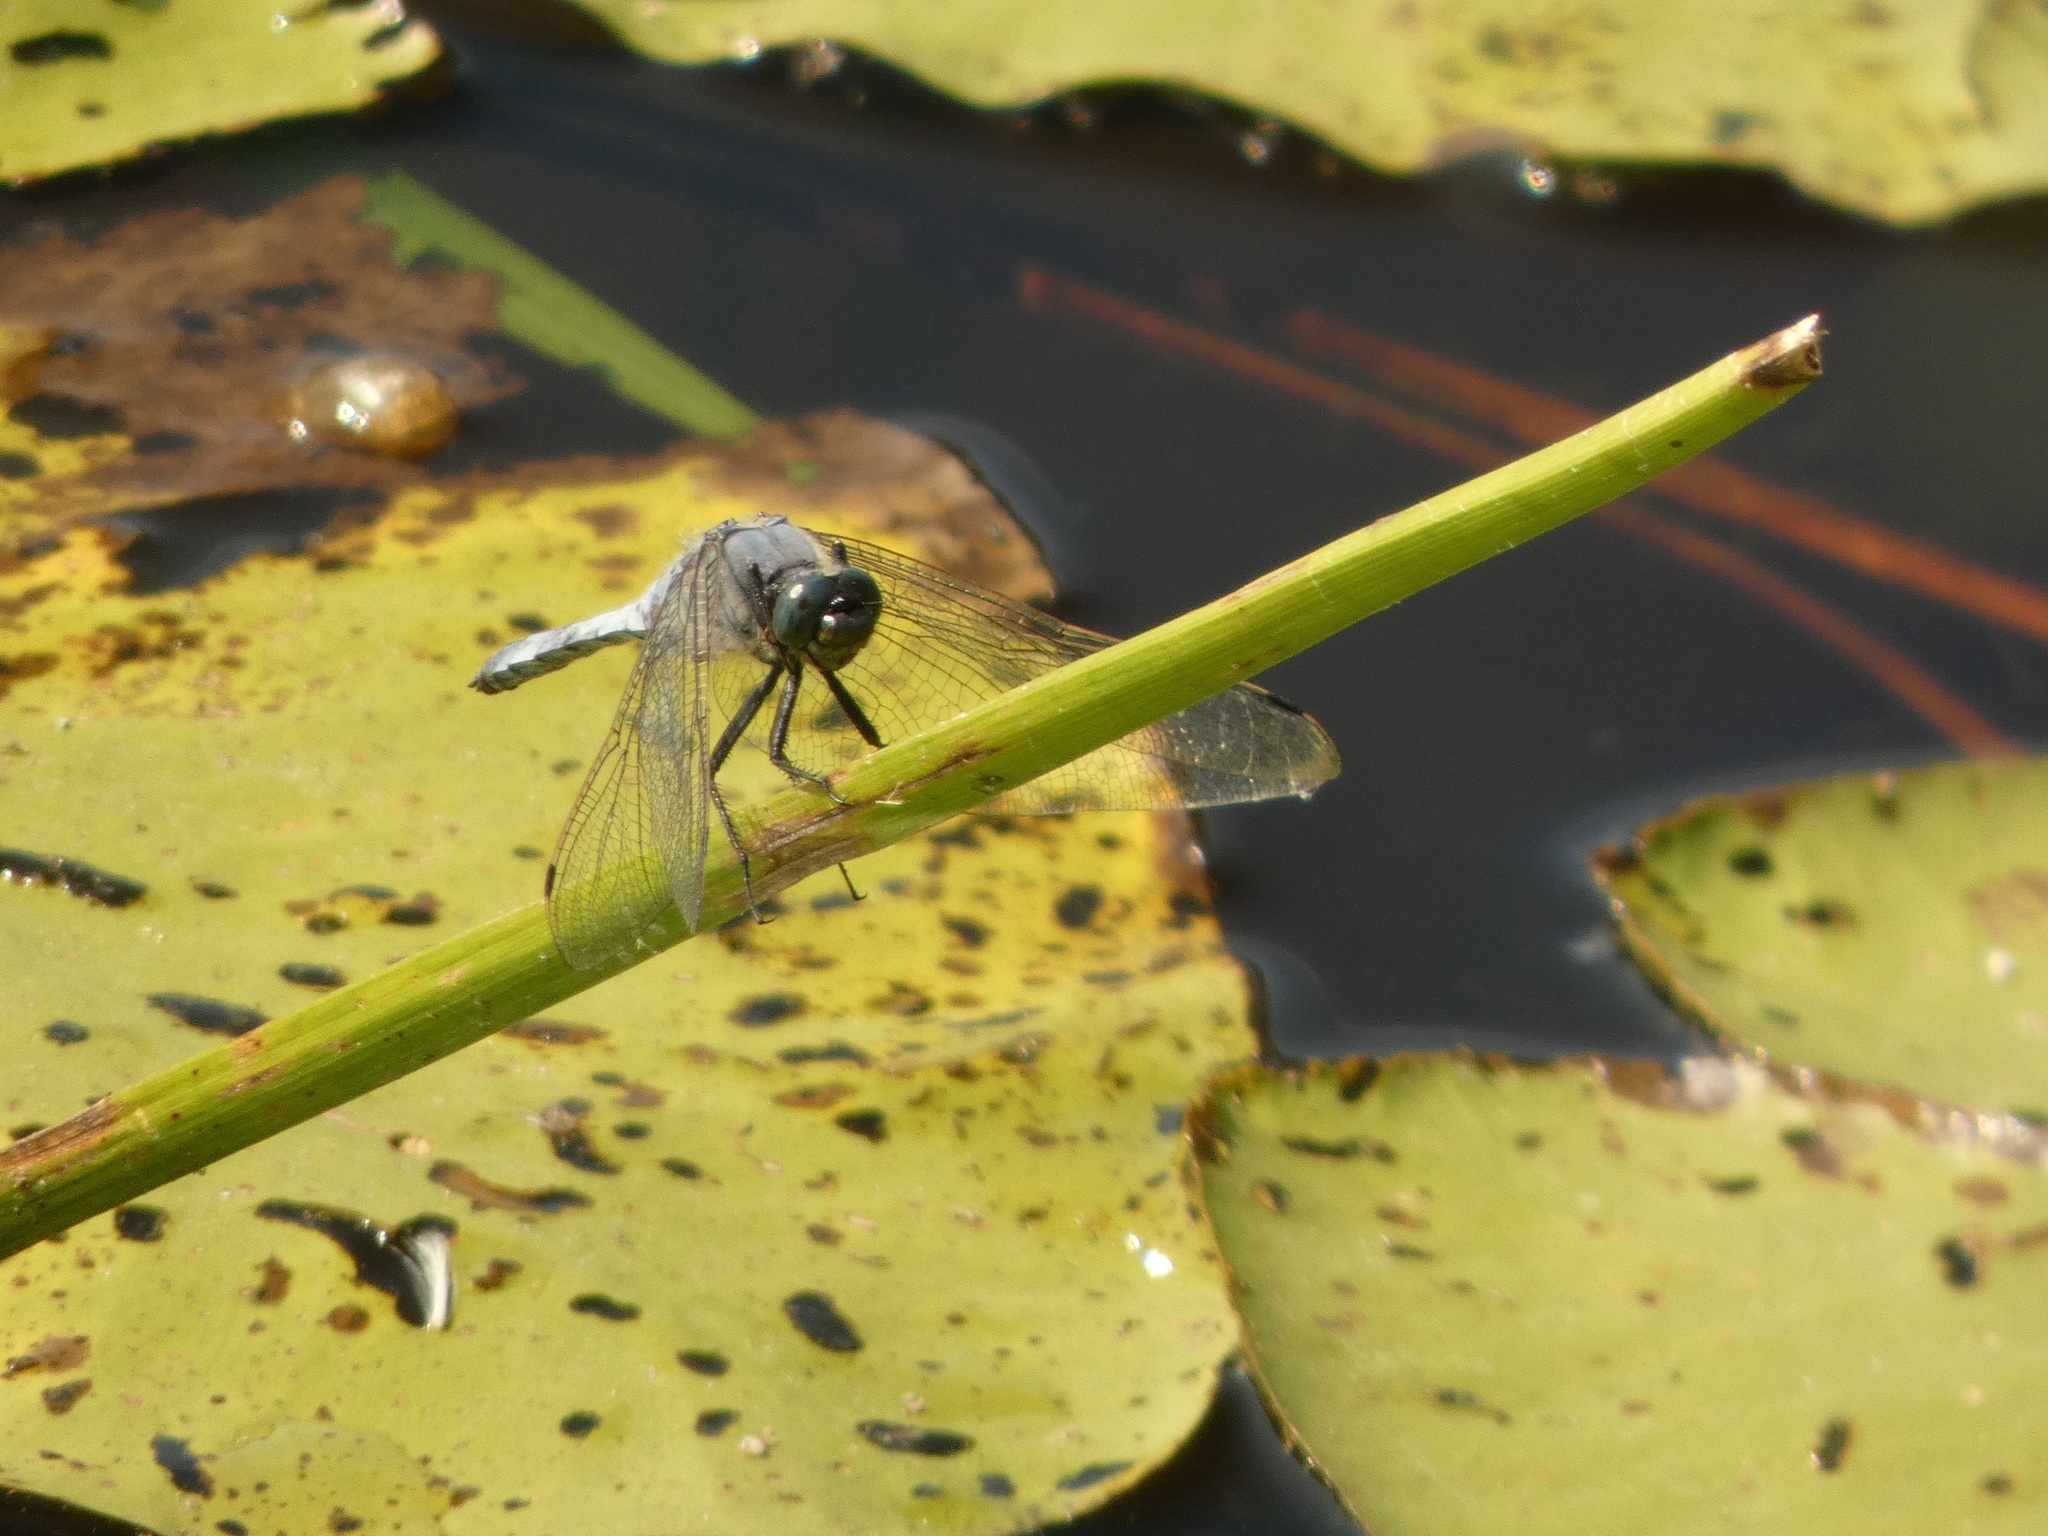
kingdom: Animalia
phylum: Arthropoda
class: Insecta
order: Odonata
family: Libellulidae
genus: Orthetrum
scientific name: Orthetrum cancellatum
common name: Black-tailed skimmer
